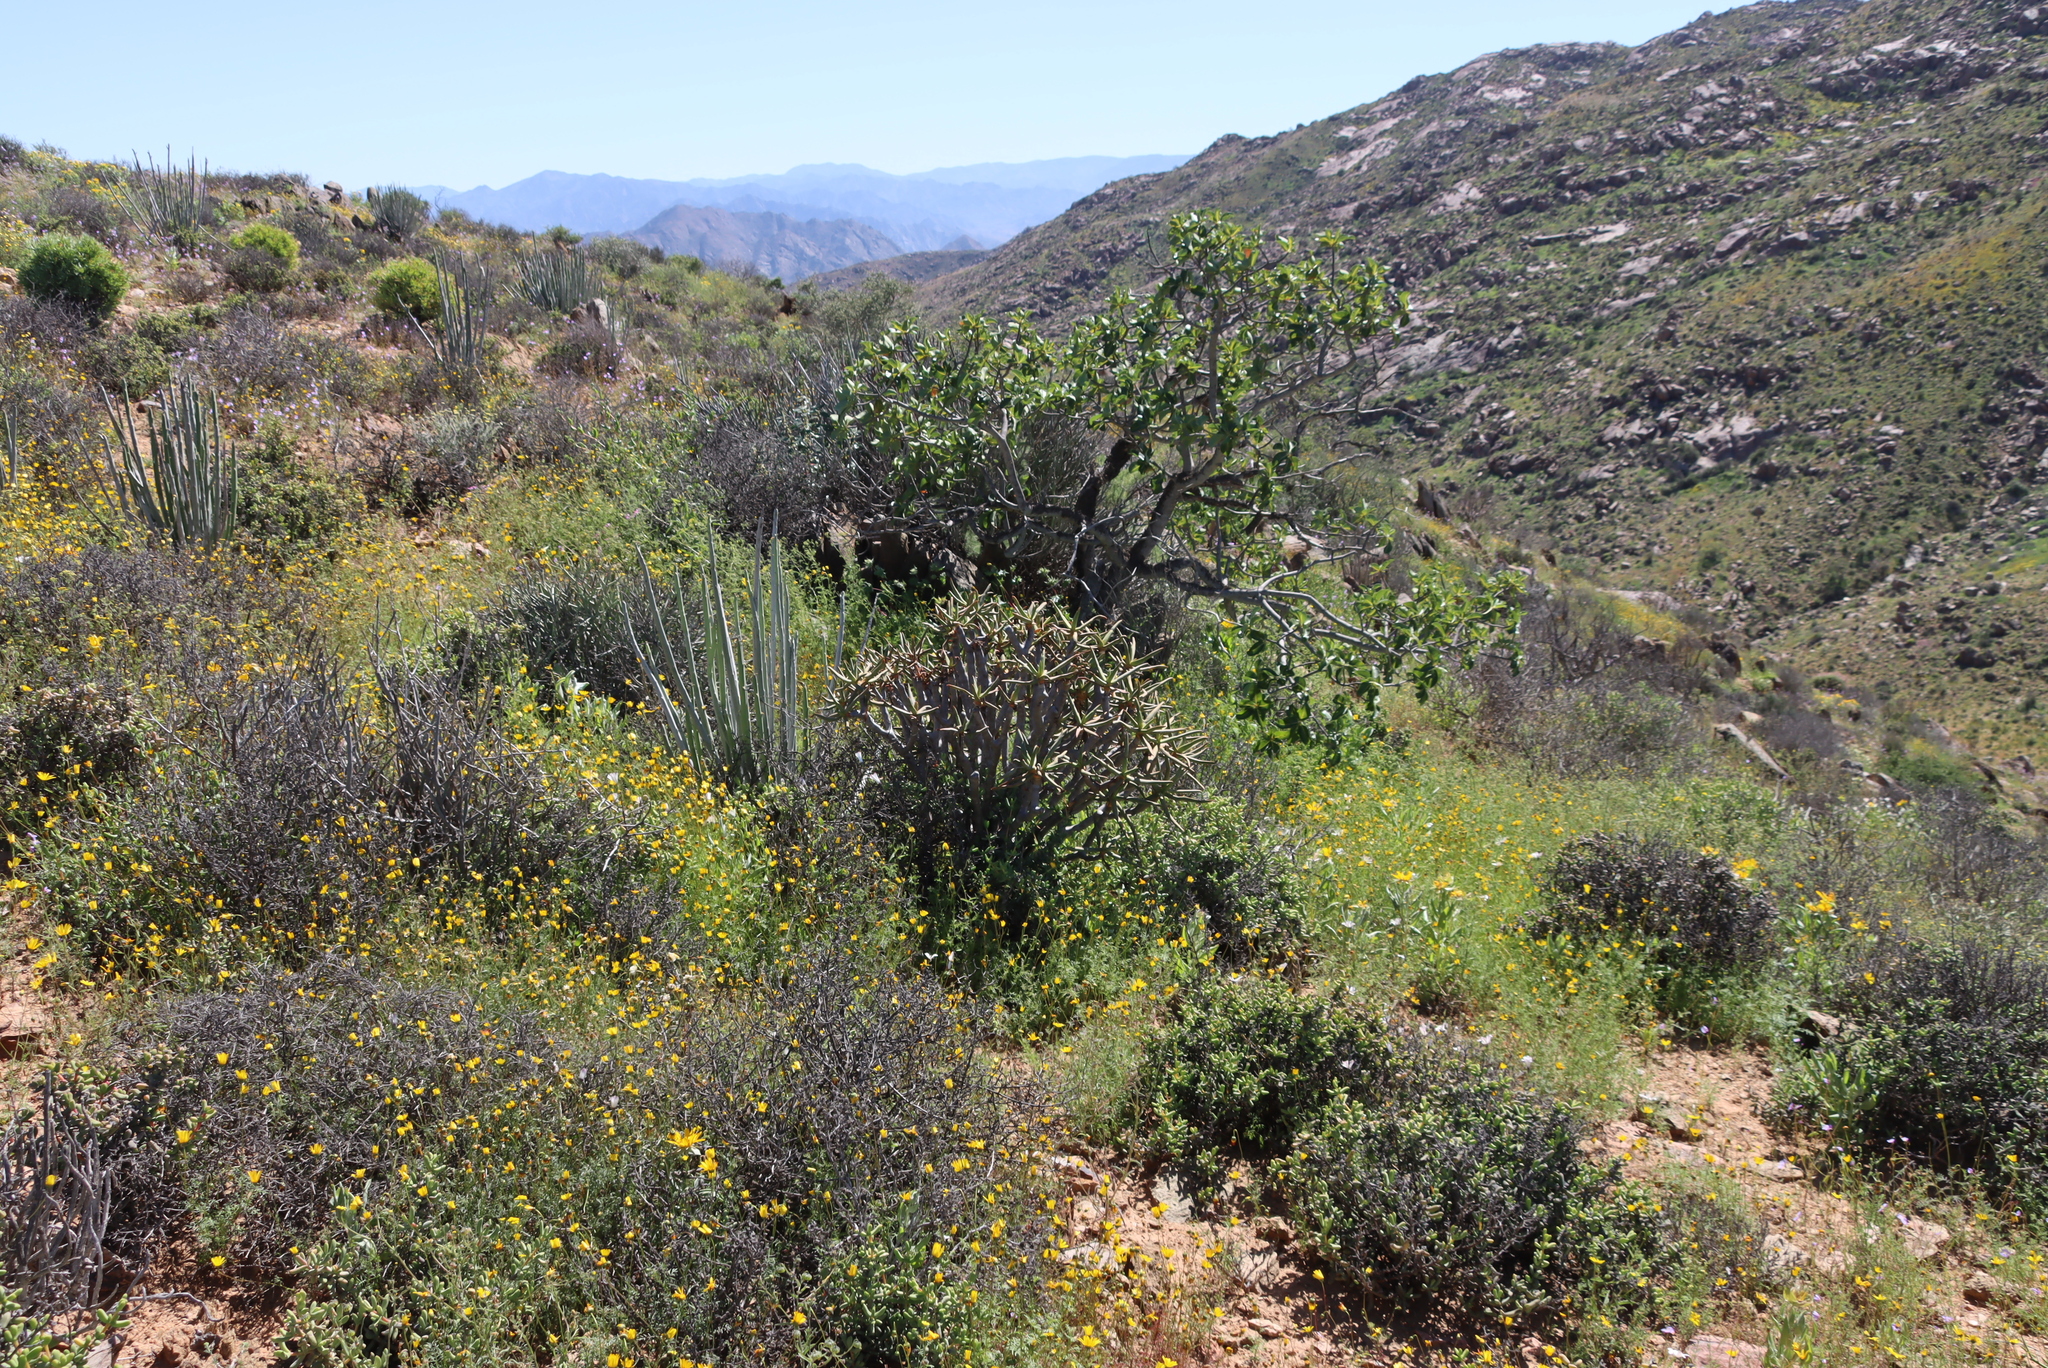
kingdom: Plantae
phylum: Tracheophyta
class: Liliopsida
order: Asparagales
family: Asphodelaceae
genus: Aloidendron
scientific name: Aloidendron ramosissimum
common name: Bush quiver tree
